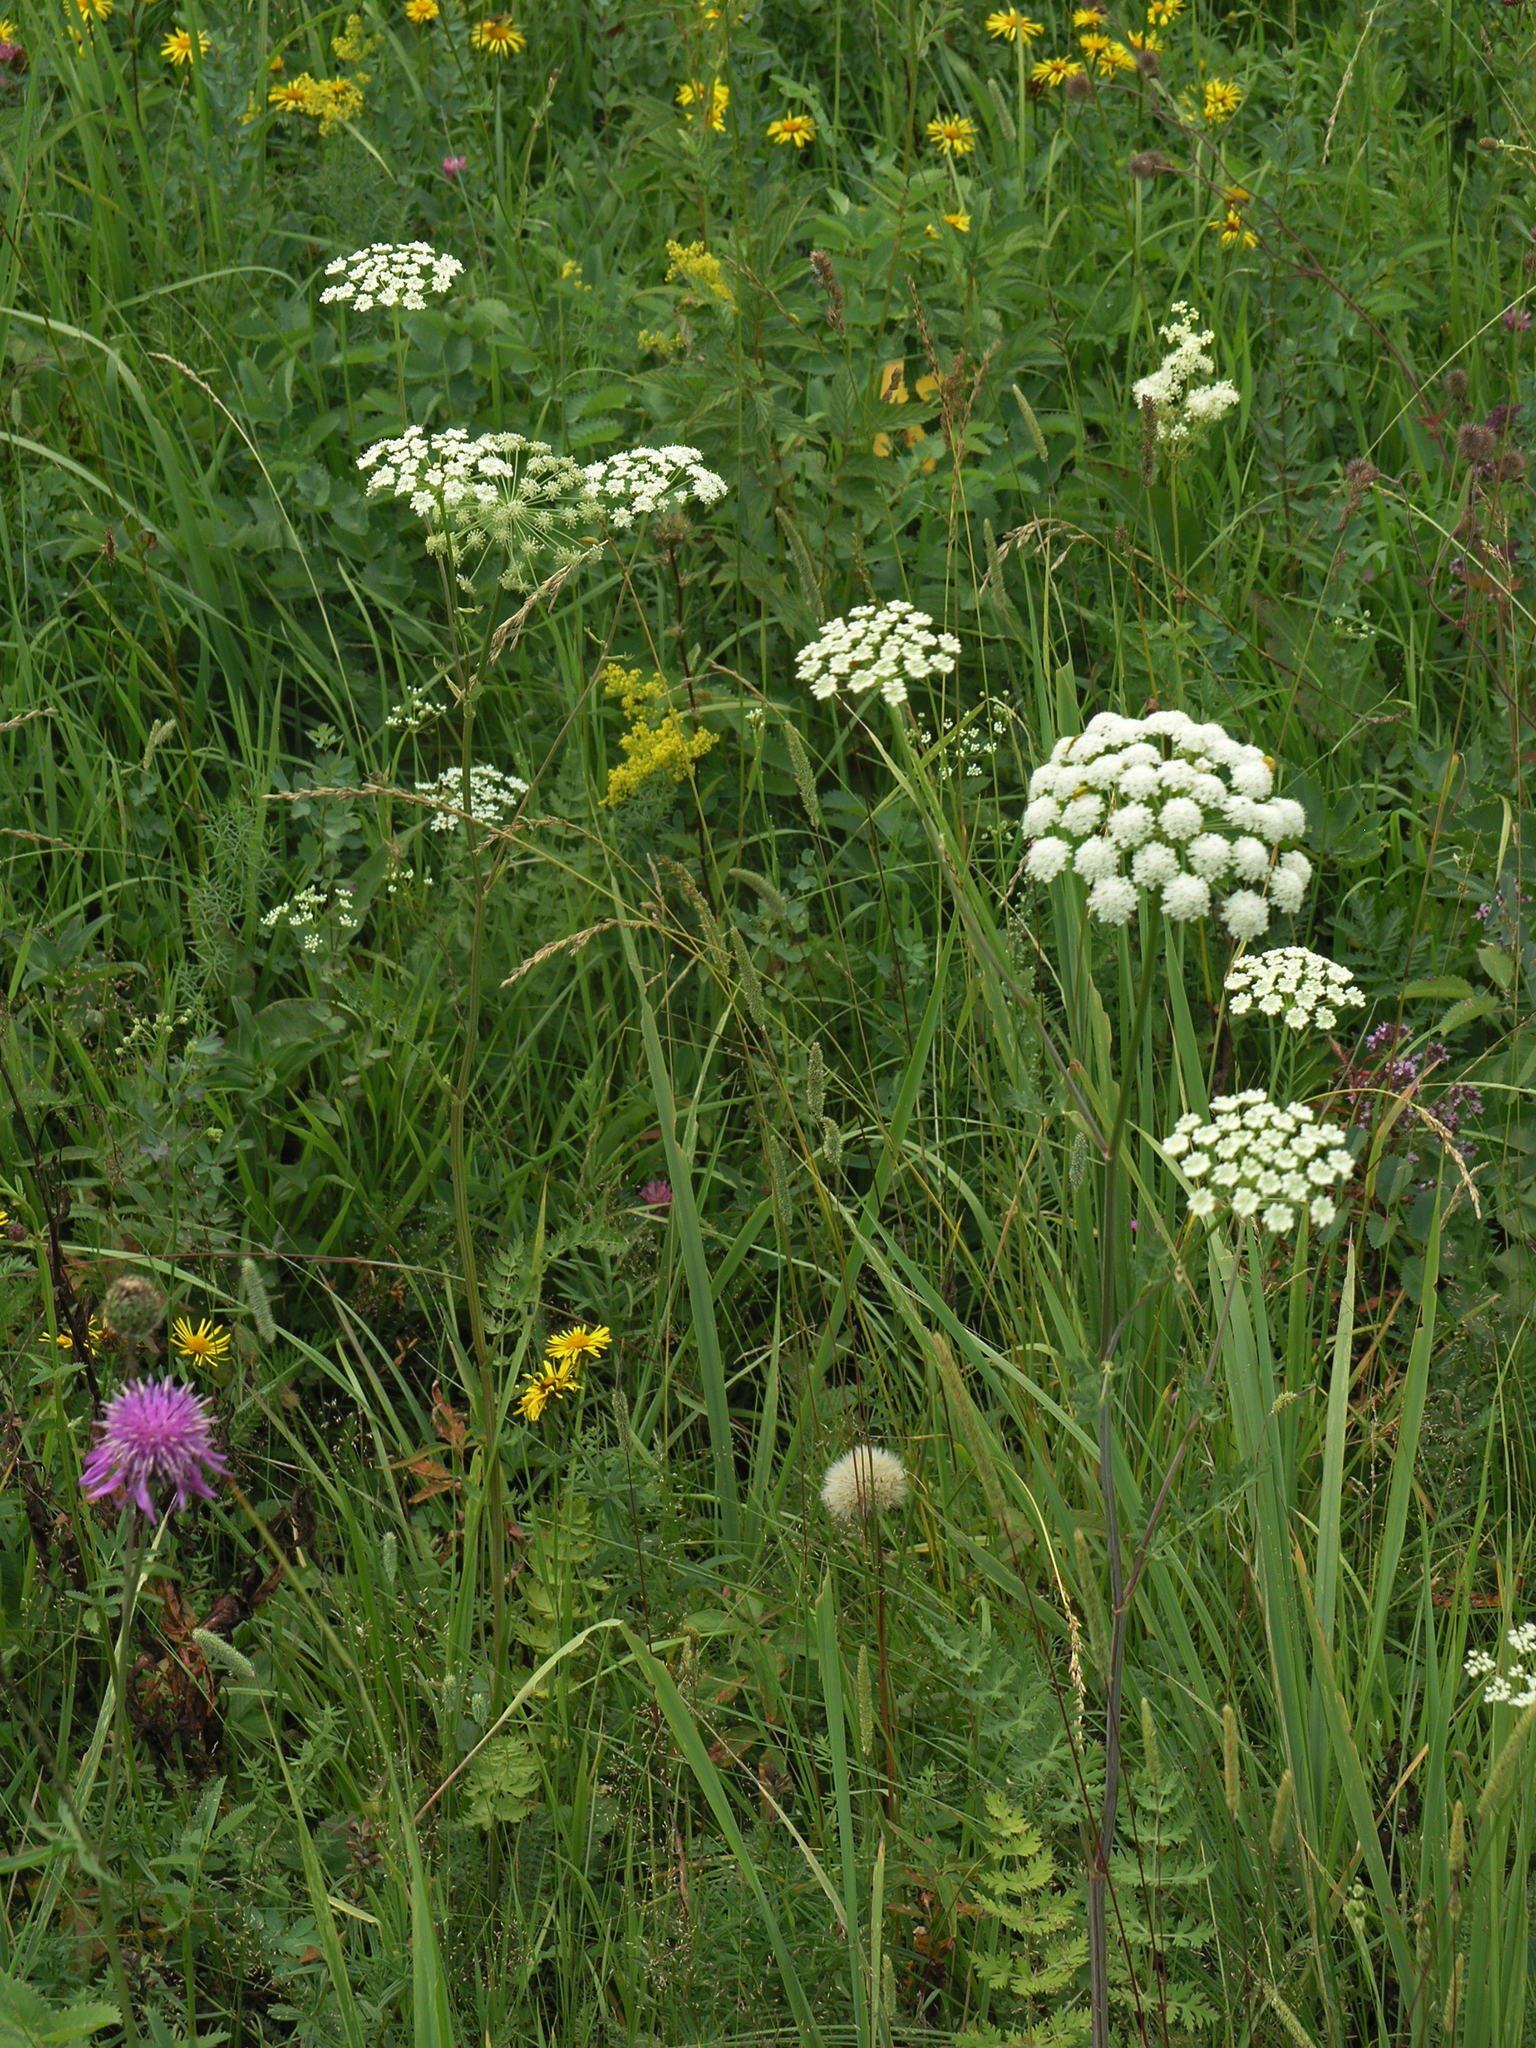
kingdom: Plantae
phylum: Tracheophyta
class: Magnoliopsida
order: Apiales
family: Apiaceae
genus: Seseli
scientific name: Seseli libanotis
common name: Mooncarrot
